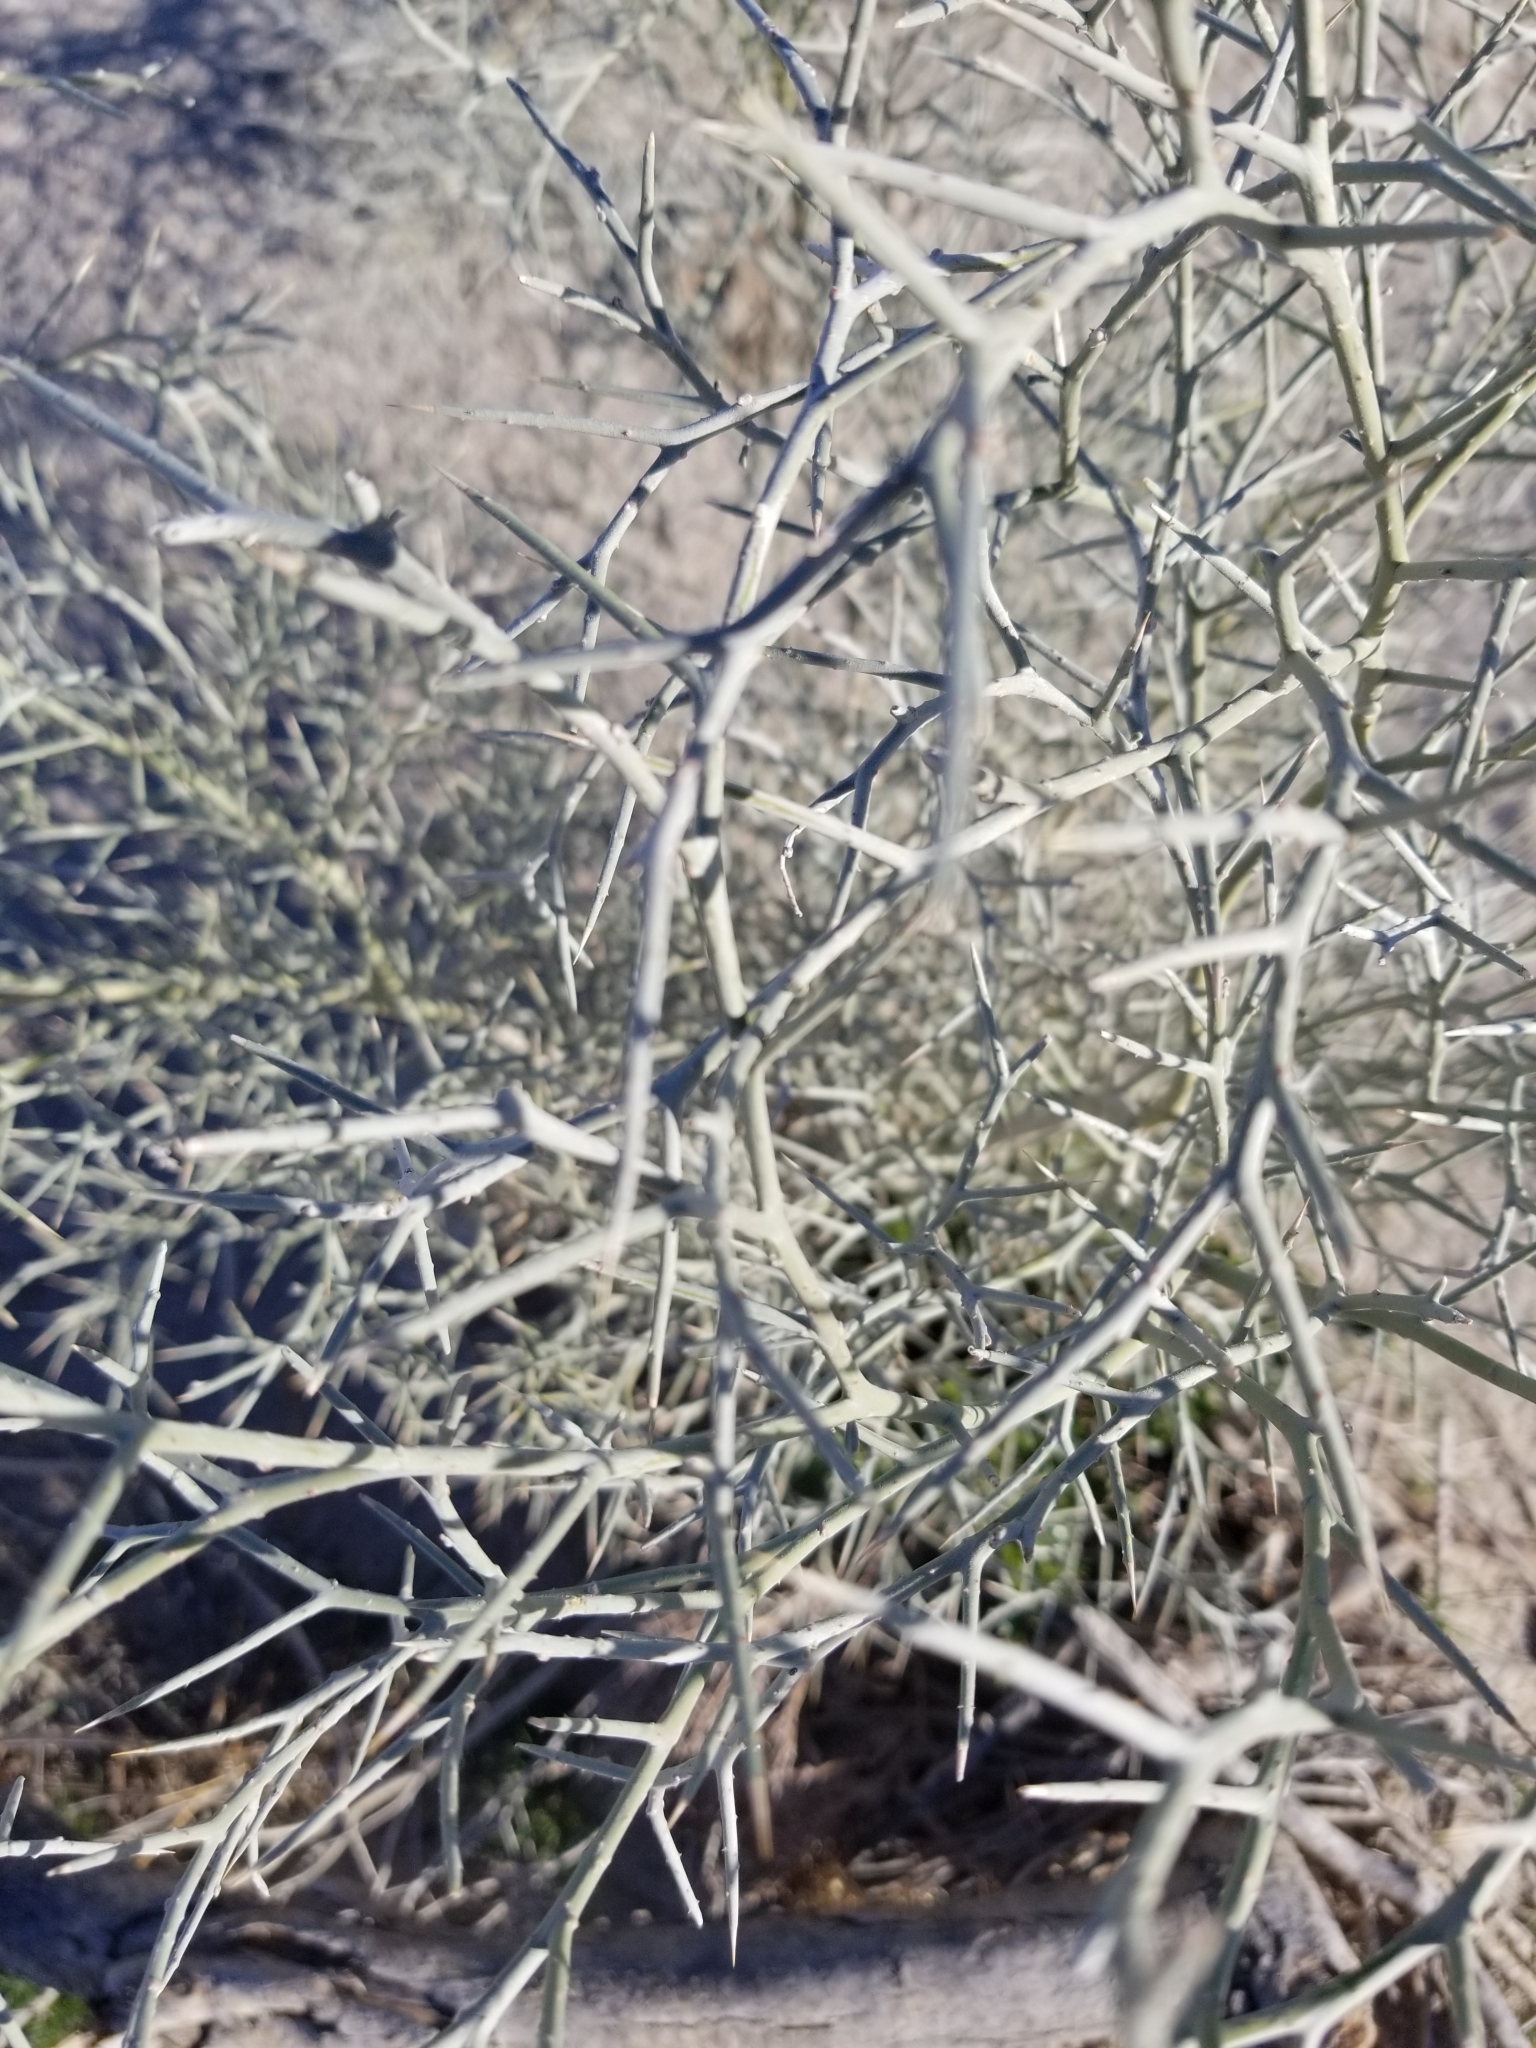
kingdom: Plantae
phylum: Tracheophyta
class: Magnoliopsida
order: Fabales
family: Fabaceae
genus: Psorothamnus
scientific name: Psorothamnus spinosus
